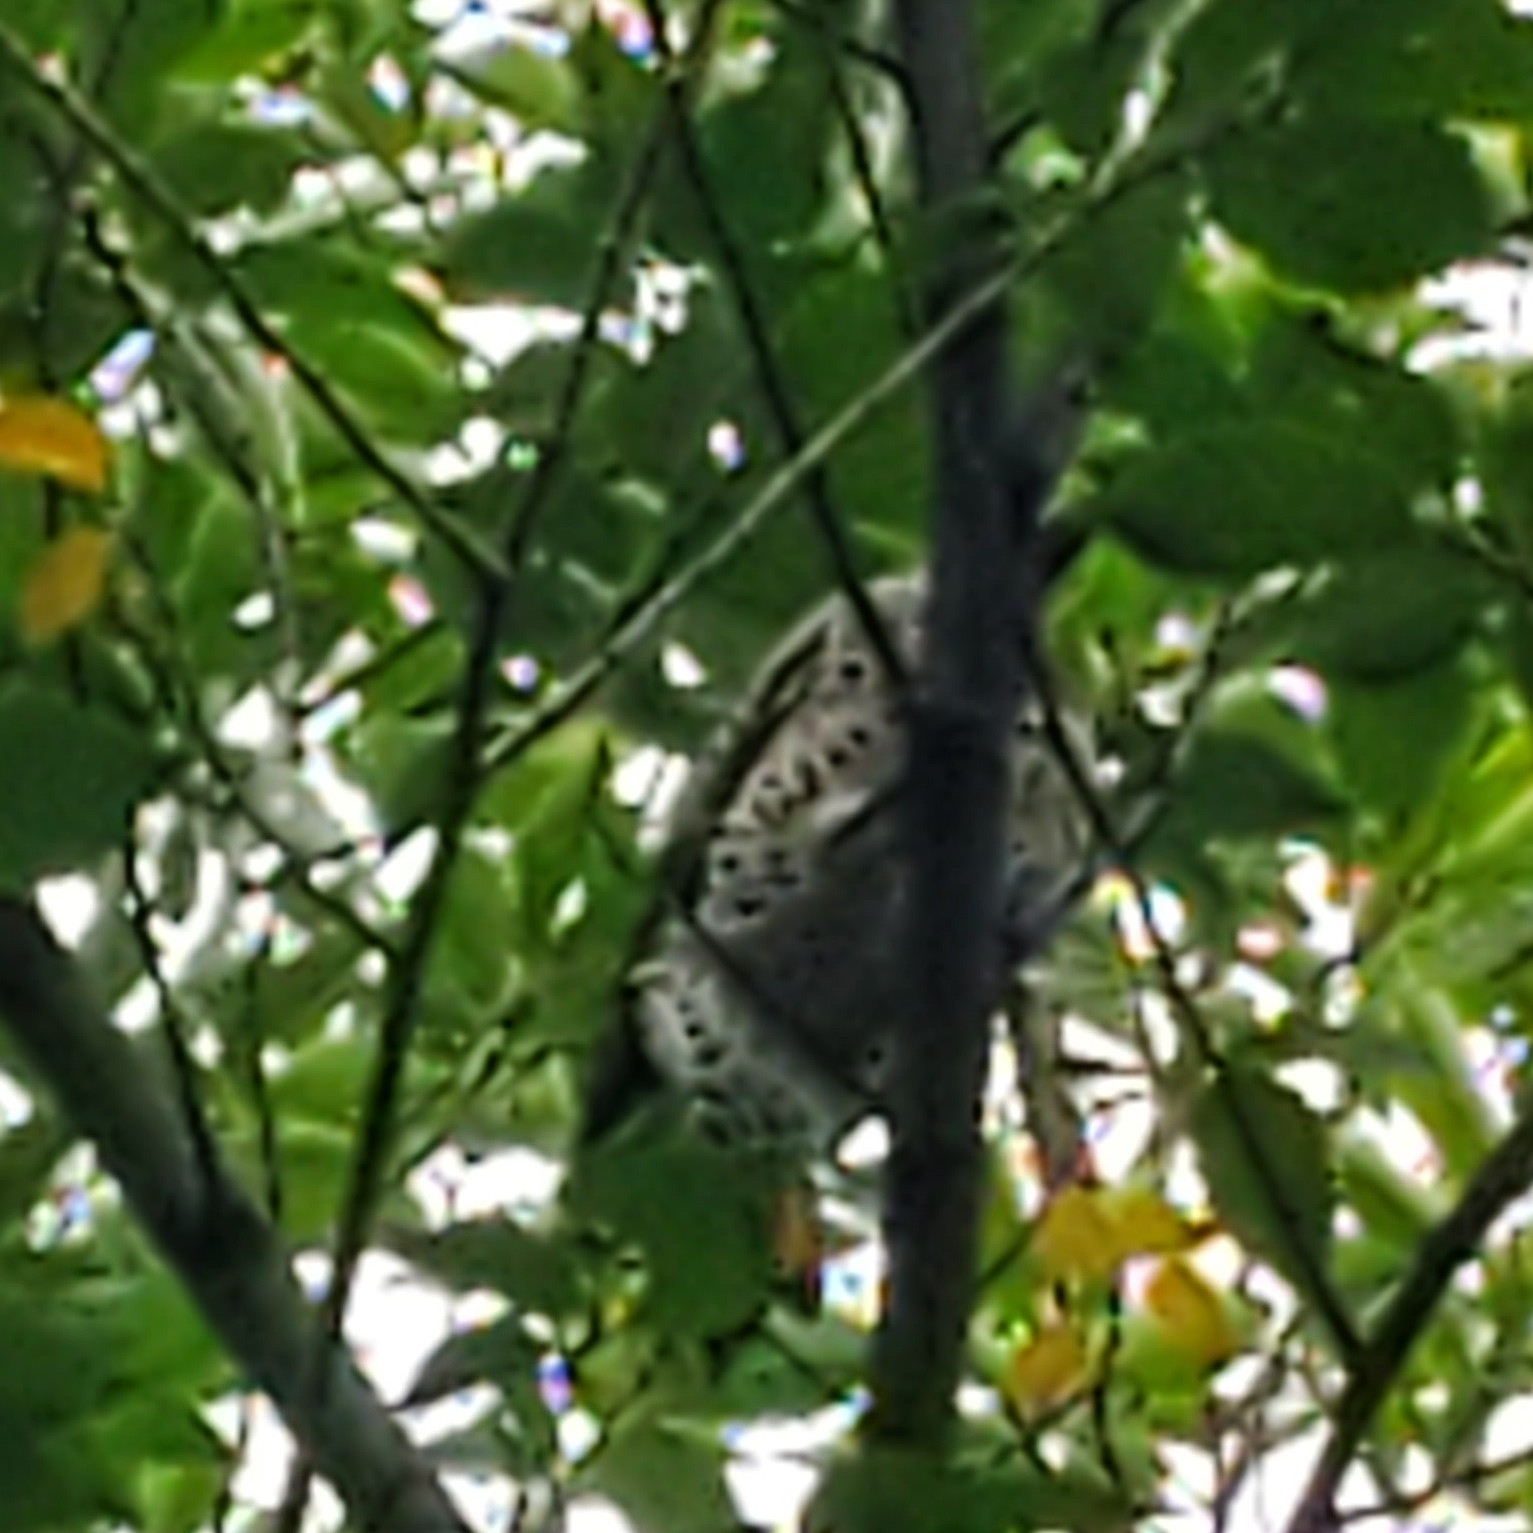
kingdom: Animalia
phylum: Chordata
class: Aves
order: Piciformes
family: Picidae
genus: Colaptes
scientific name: Colaptes auratus
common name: Northern flicker
